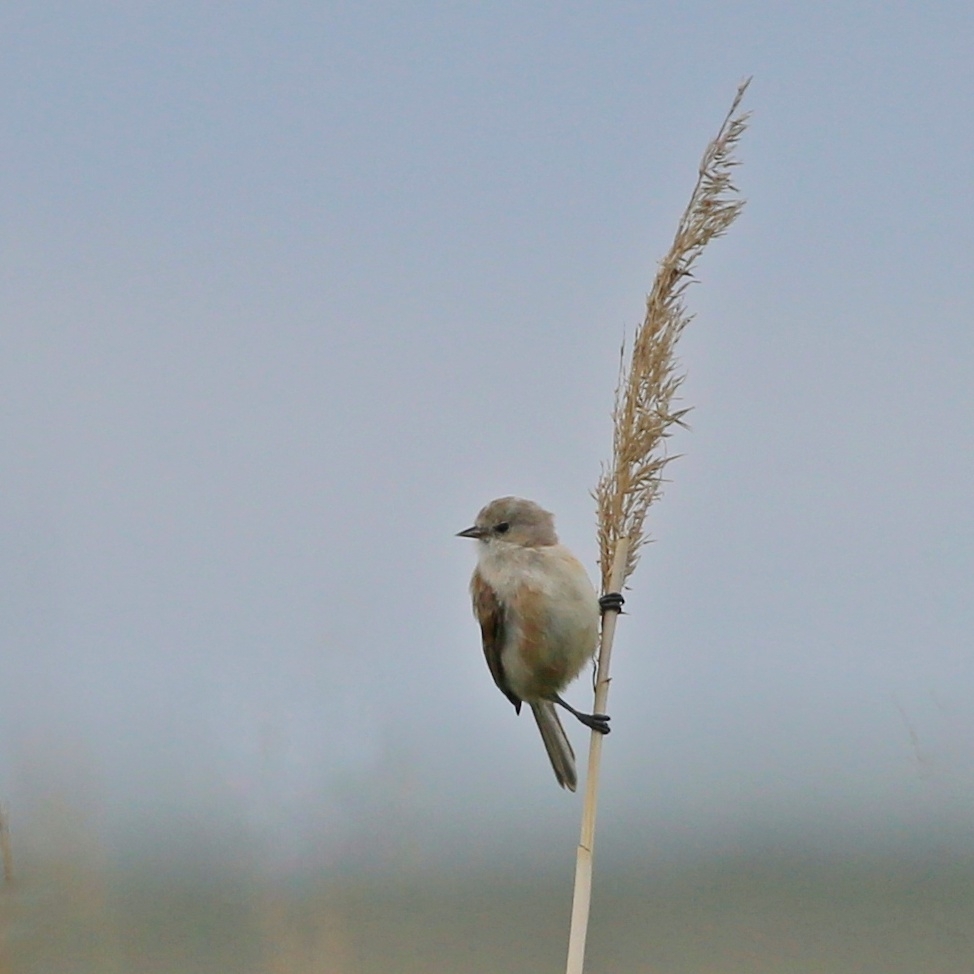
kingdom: Animalia
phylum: Chordata
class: Aves
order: Passeriformes
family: Remizidae
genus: Remiz
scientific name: Remiz pendulinus
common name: Eurasian penduline tit
